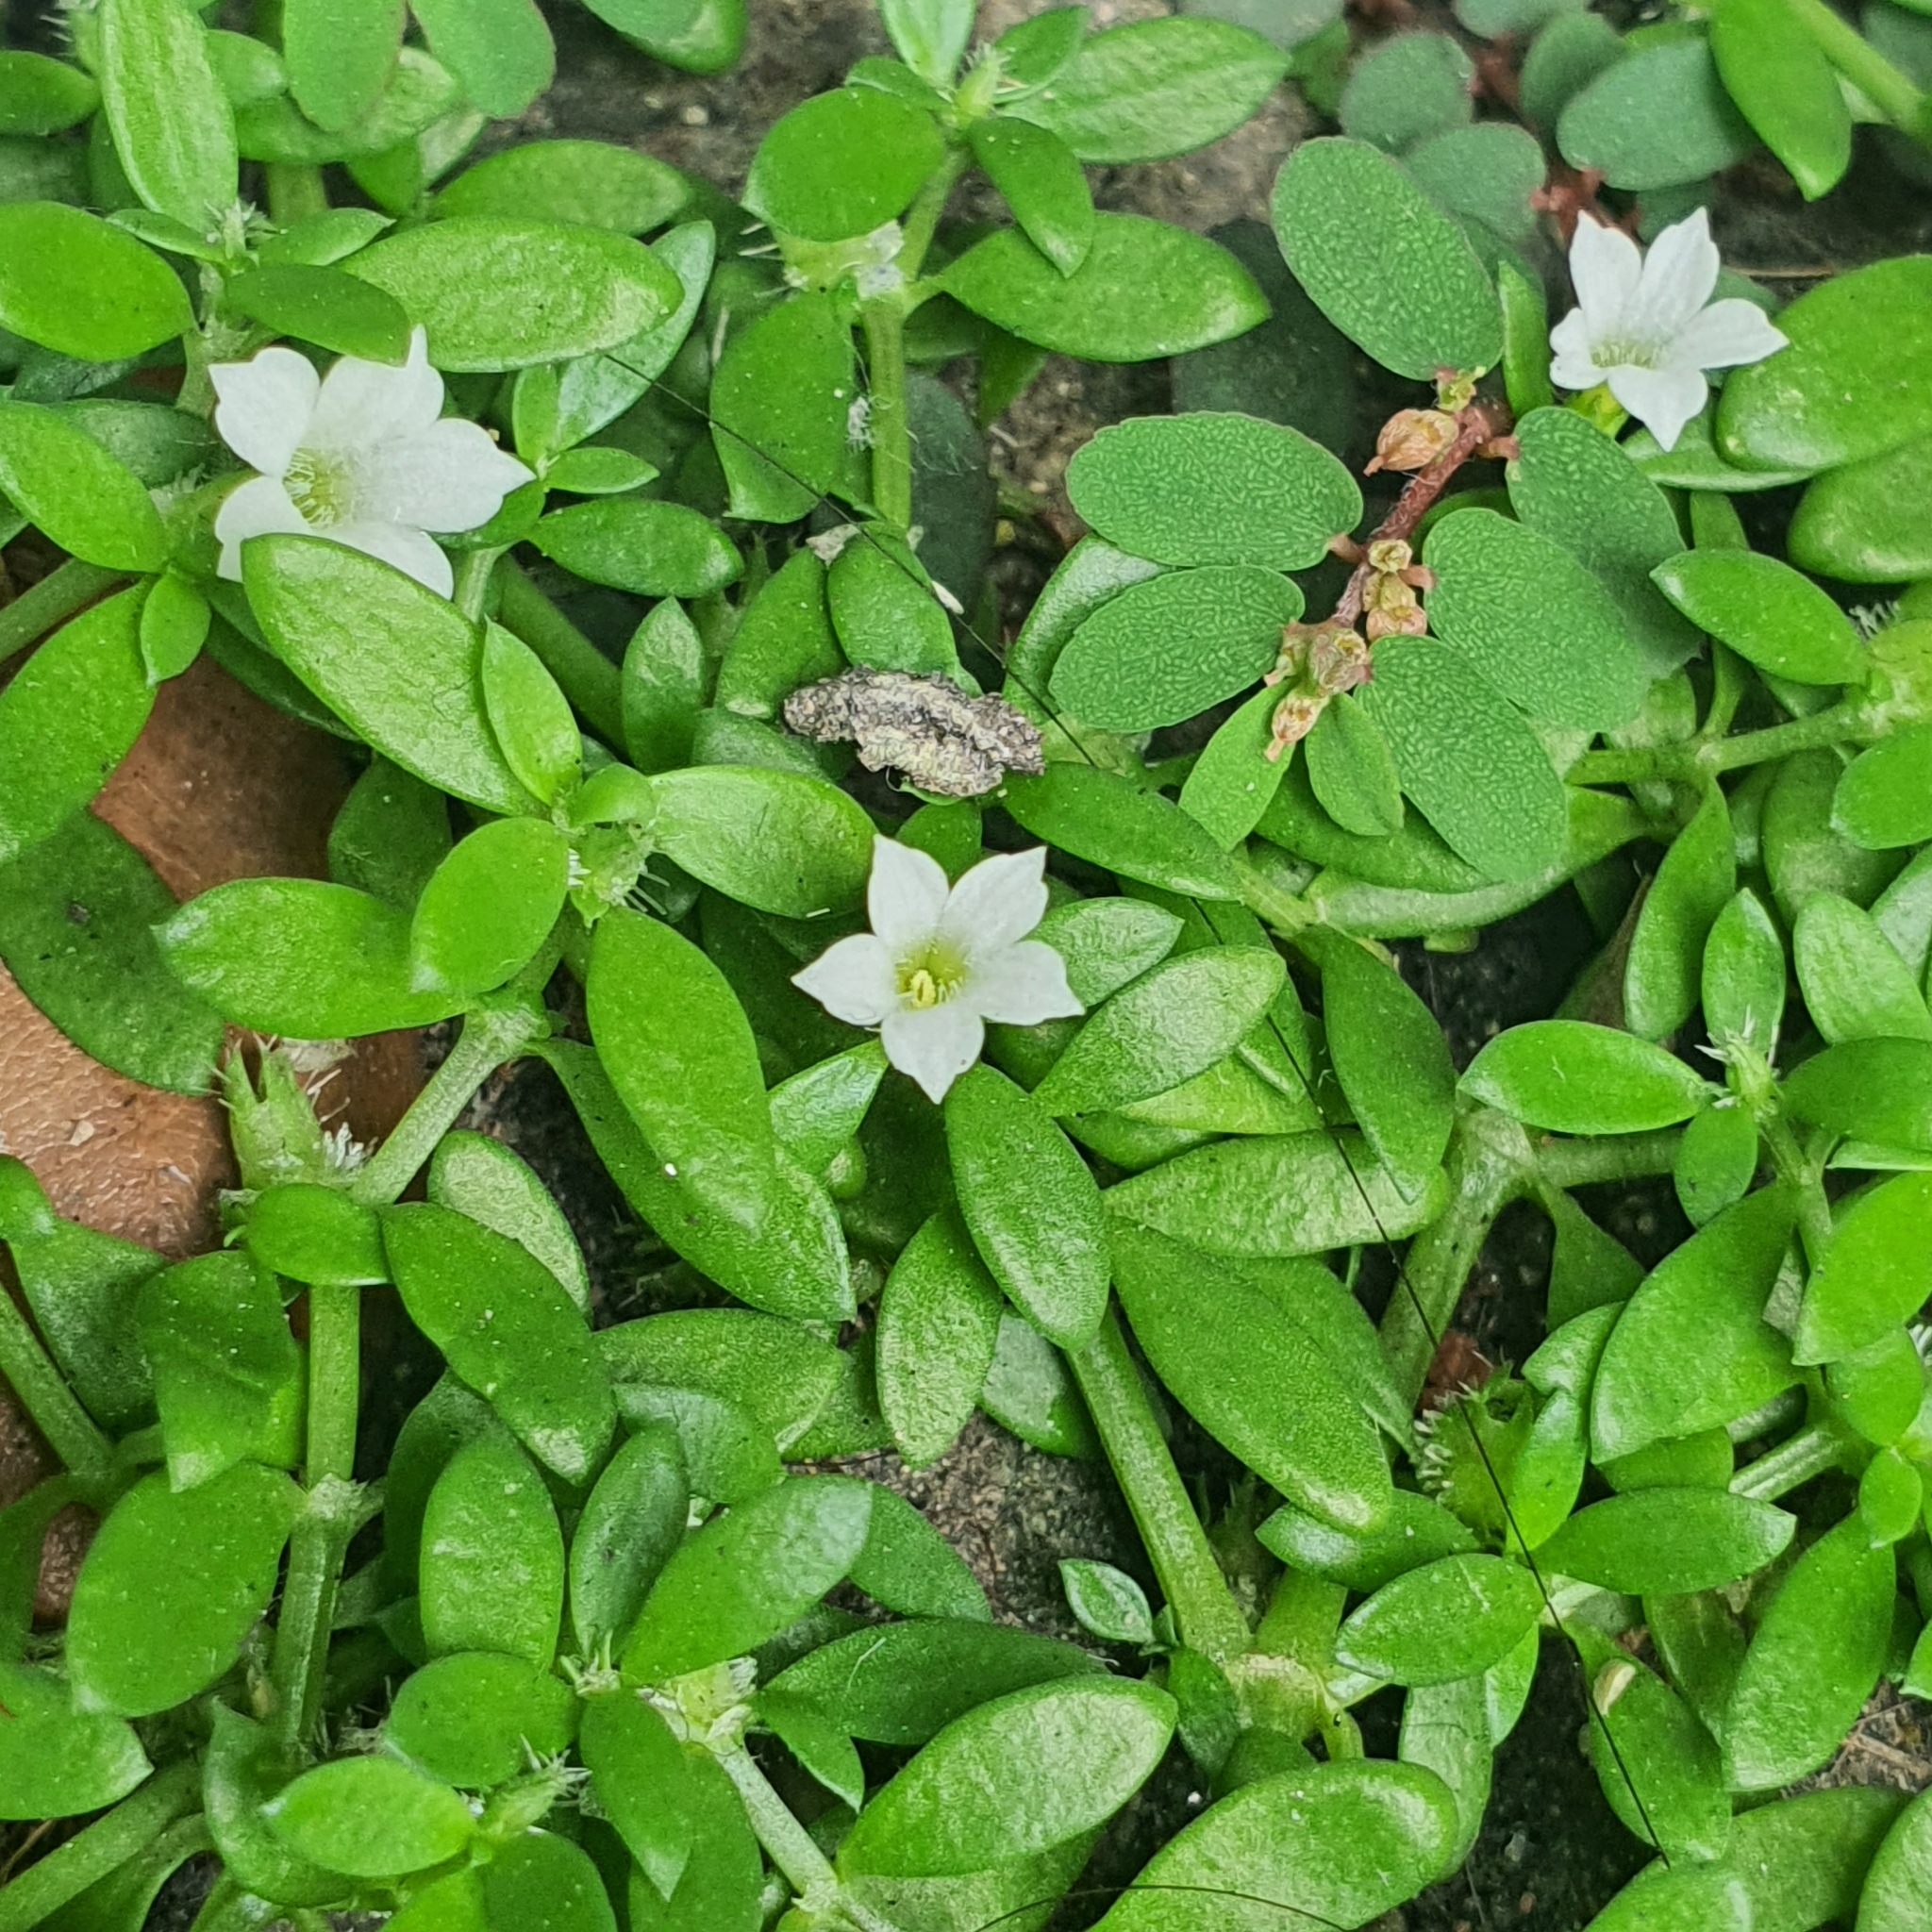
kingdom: Plantae
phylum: Tracheophyta
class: Magnoliopsida
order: Gentianales
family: Rubiaceae
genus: Dentella
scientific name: Dentella repens
